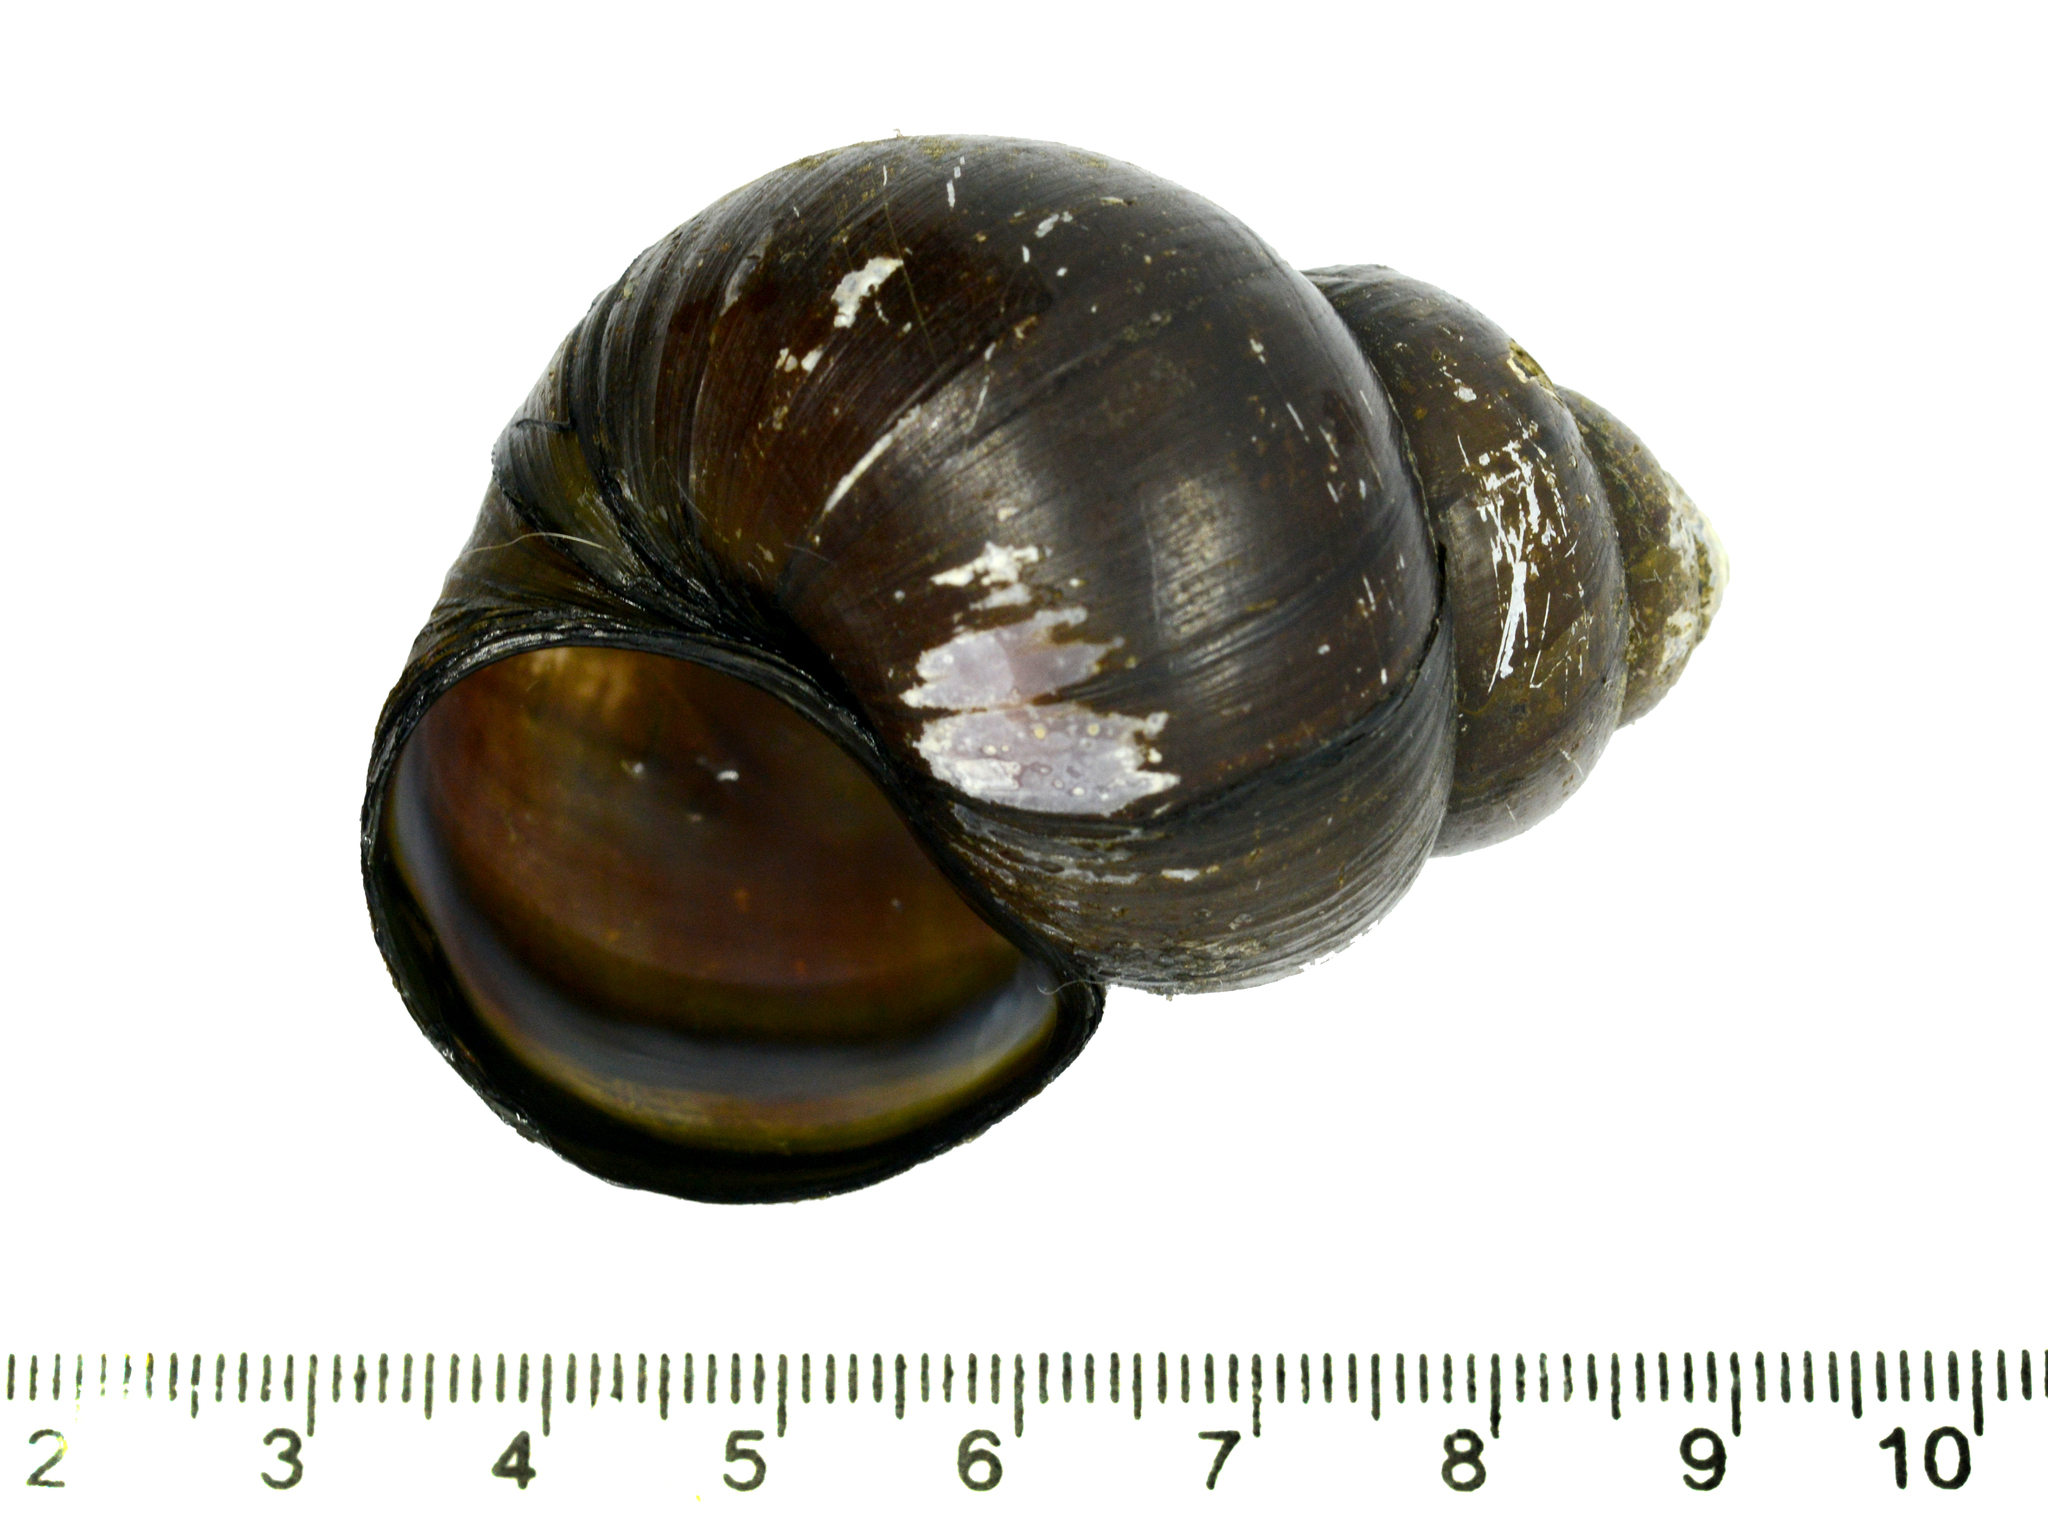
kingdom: Animalia
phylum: Mollusca
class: Gastropoda
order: Architaenioglossa
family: Viviparidae
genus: Cipangopaludina
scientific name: Cipangopaludina chinensis
